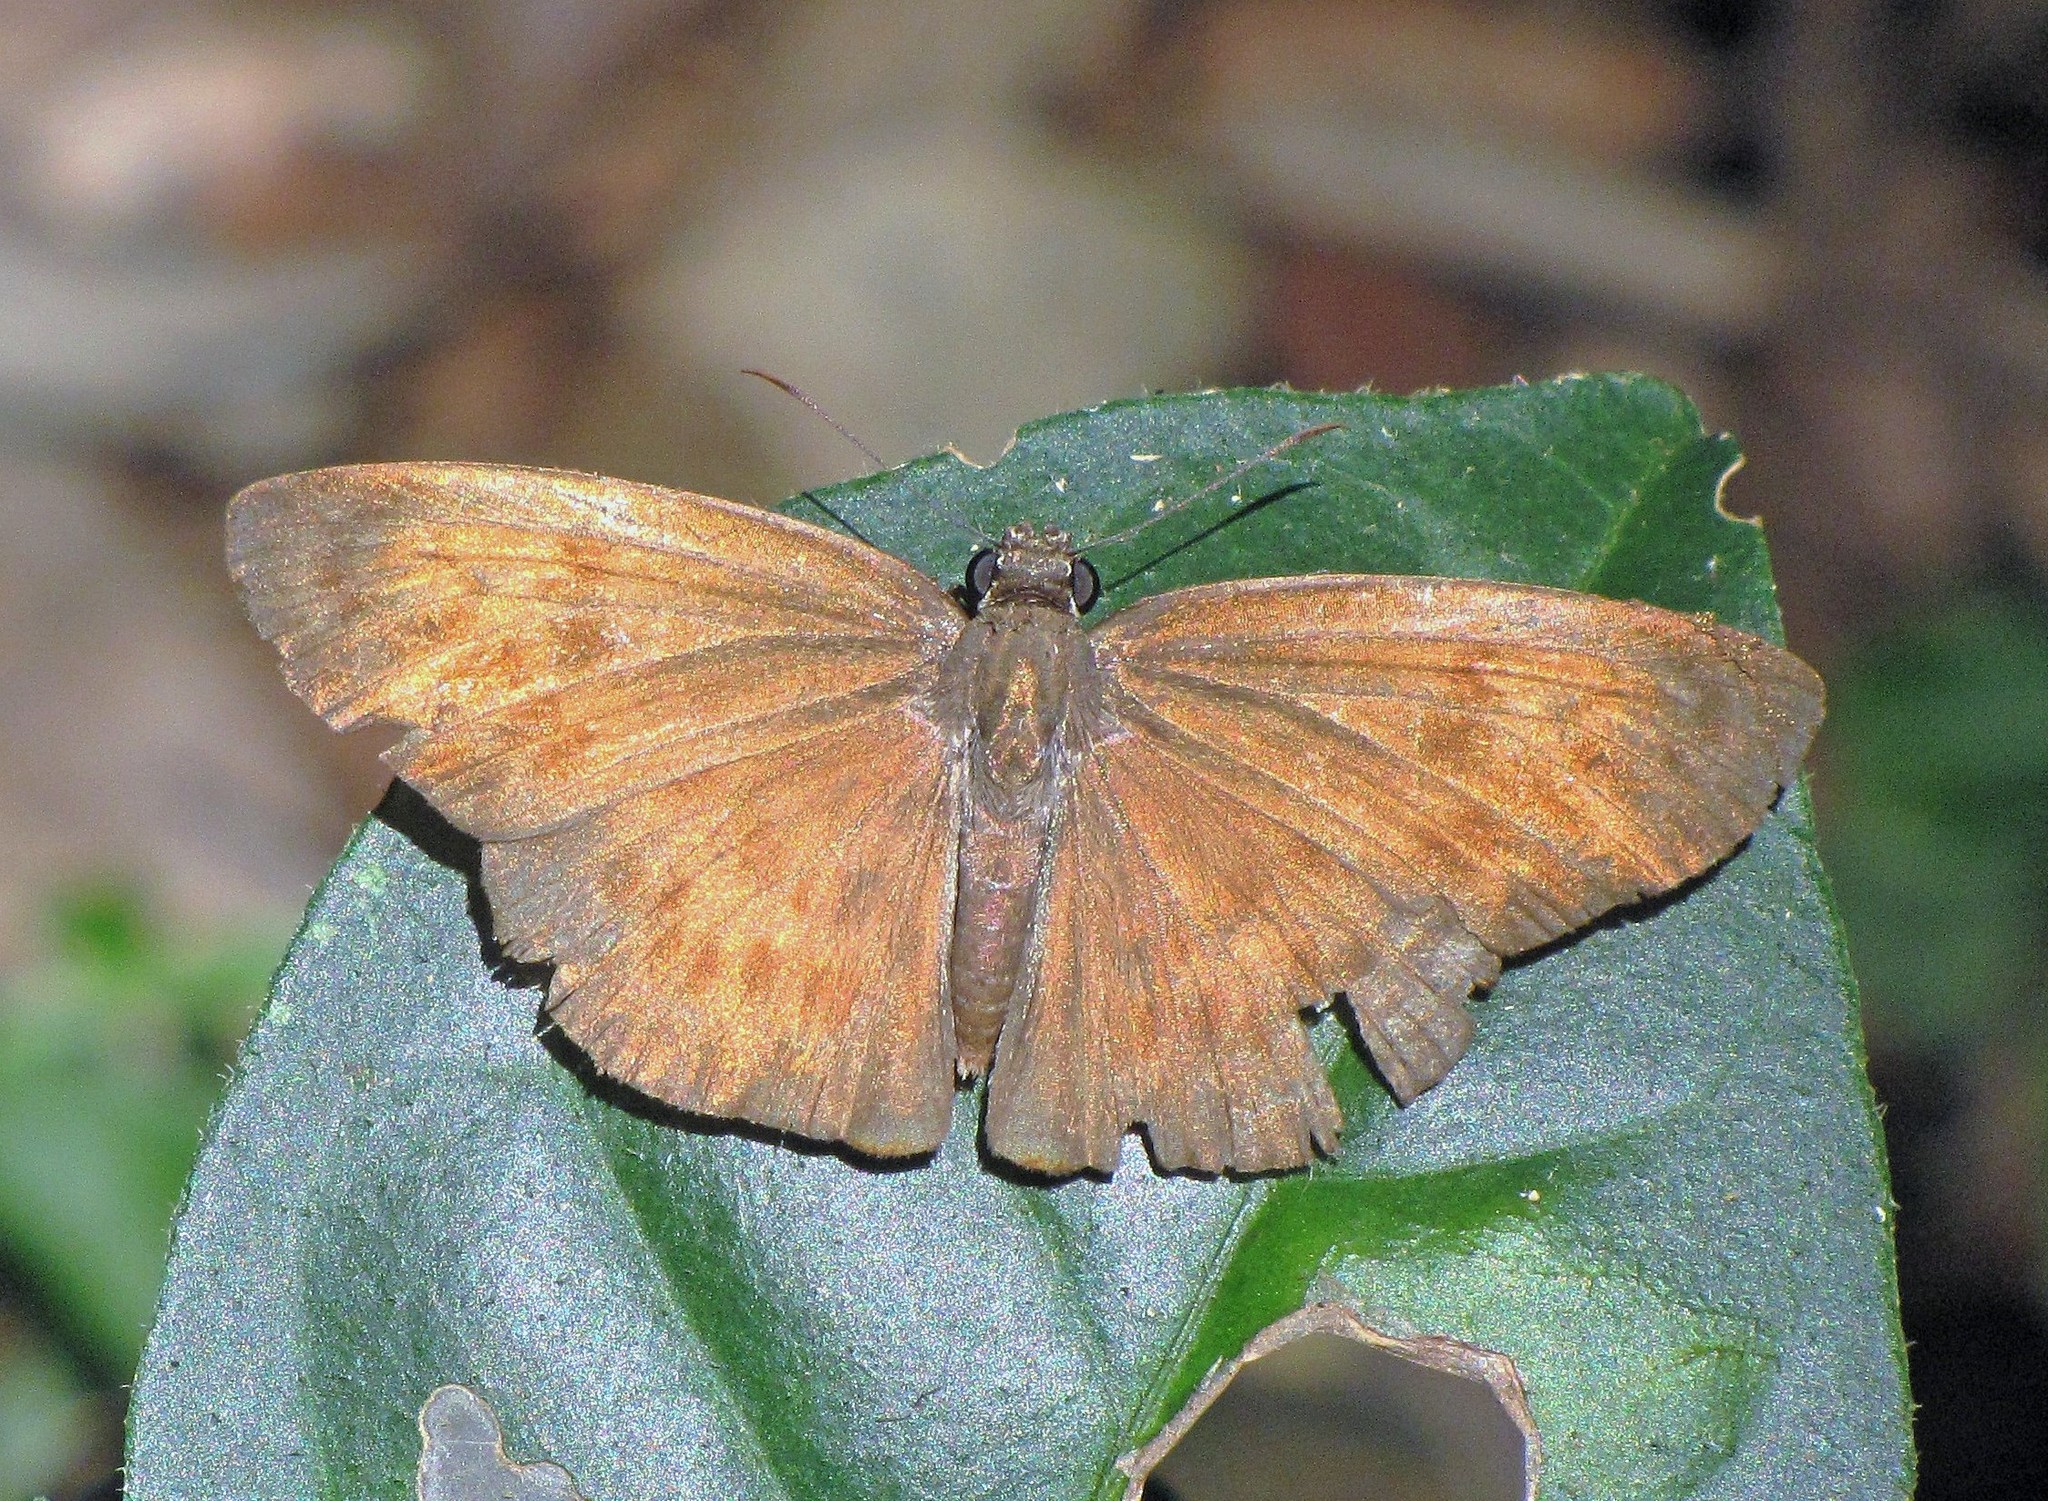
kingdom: Animalia
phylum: Arthropoda
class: Insecta
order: Lepidoptera
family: Hesperiidae
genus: Grais
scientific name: Grais stigmaticus
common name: Hermit skipper
